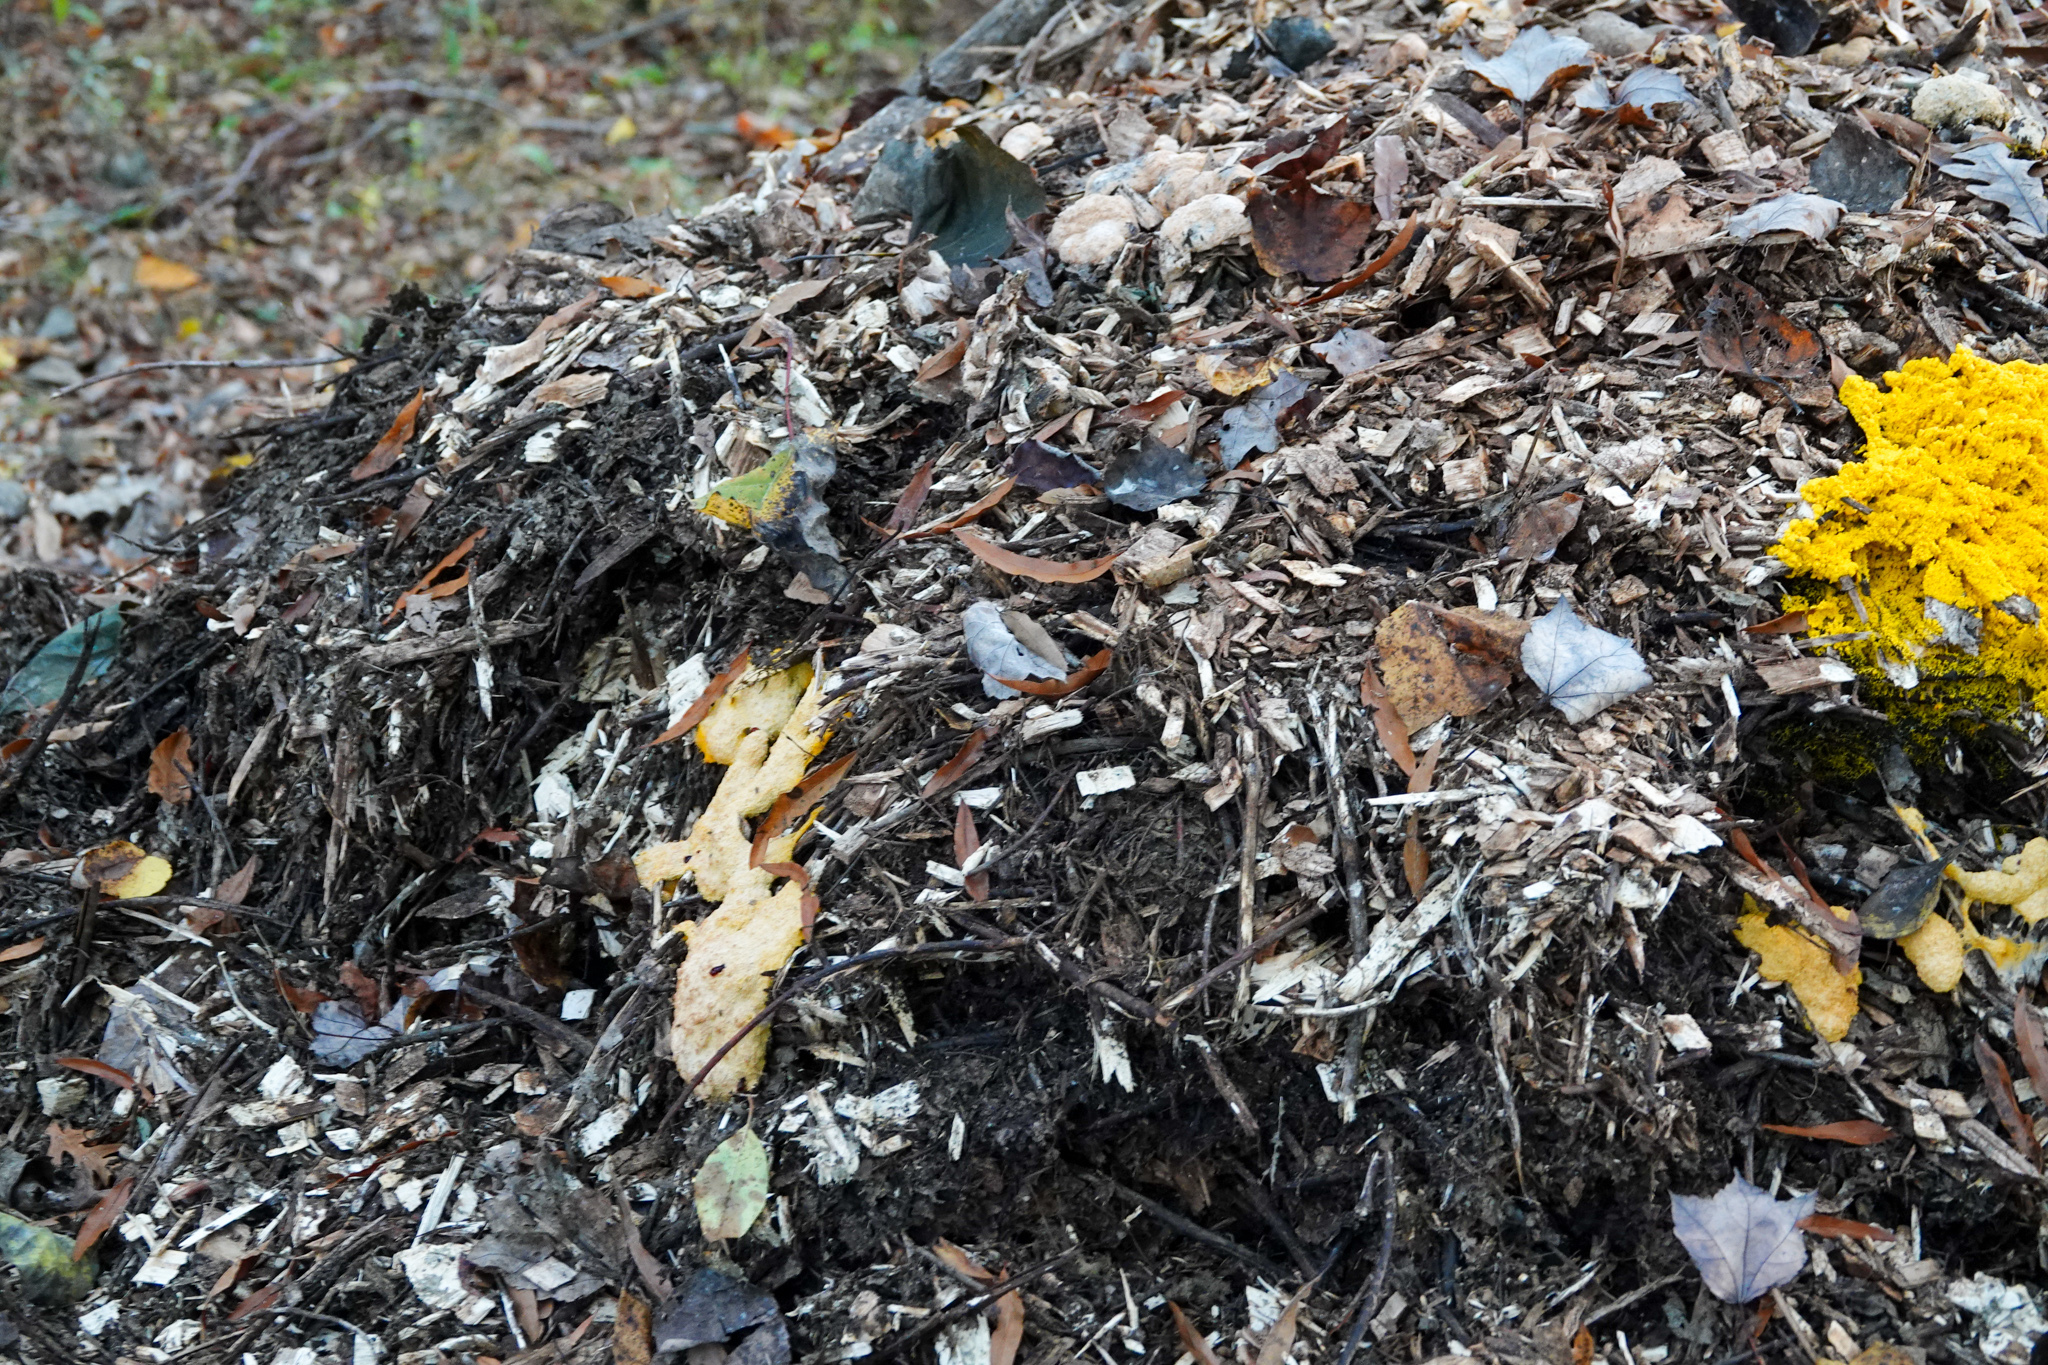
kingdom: Protozoa
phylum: Mycetozoa
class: Myxomycetes
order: Physarales
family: Physaraceae
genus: Fuligo
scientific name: Fuligo septica
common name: Dog vomit slime mold
